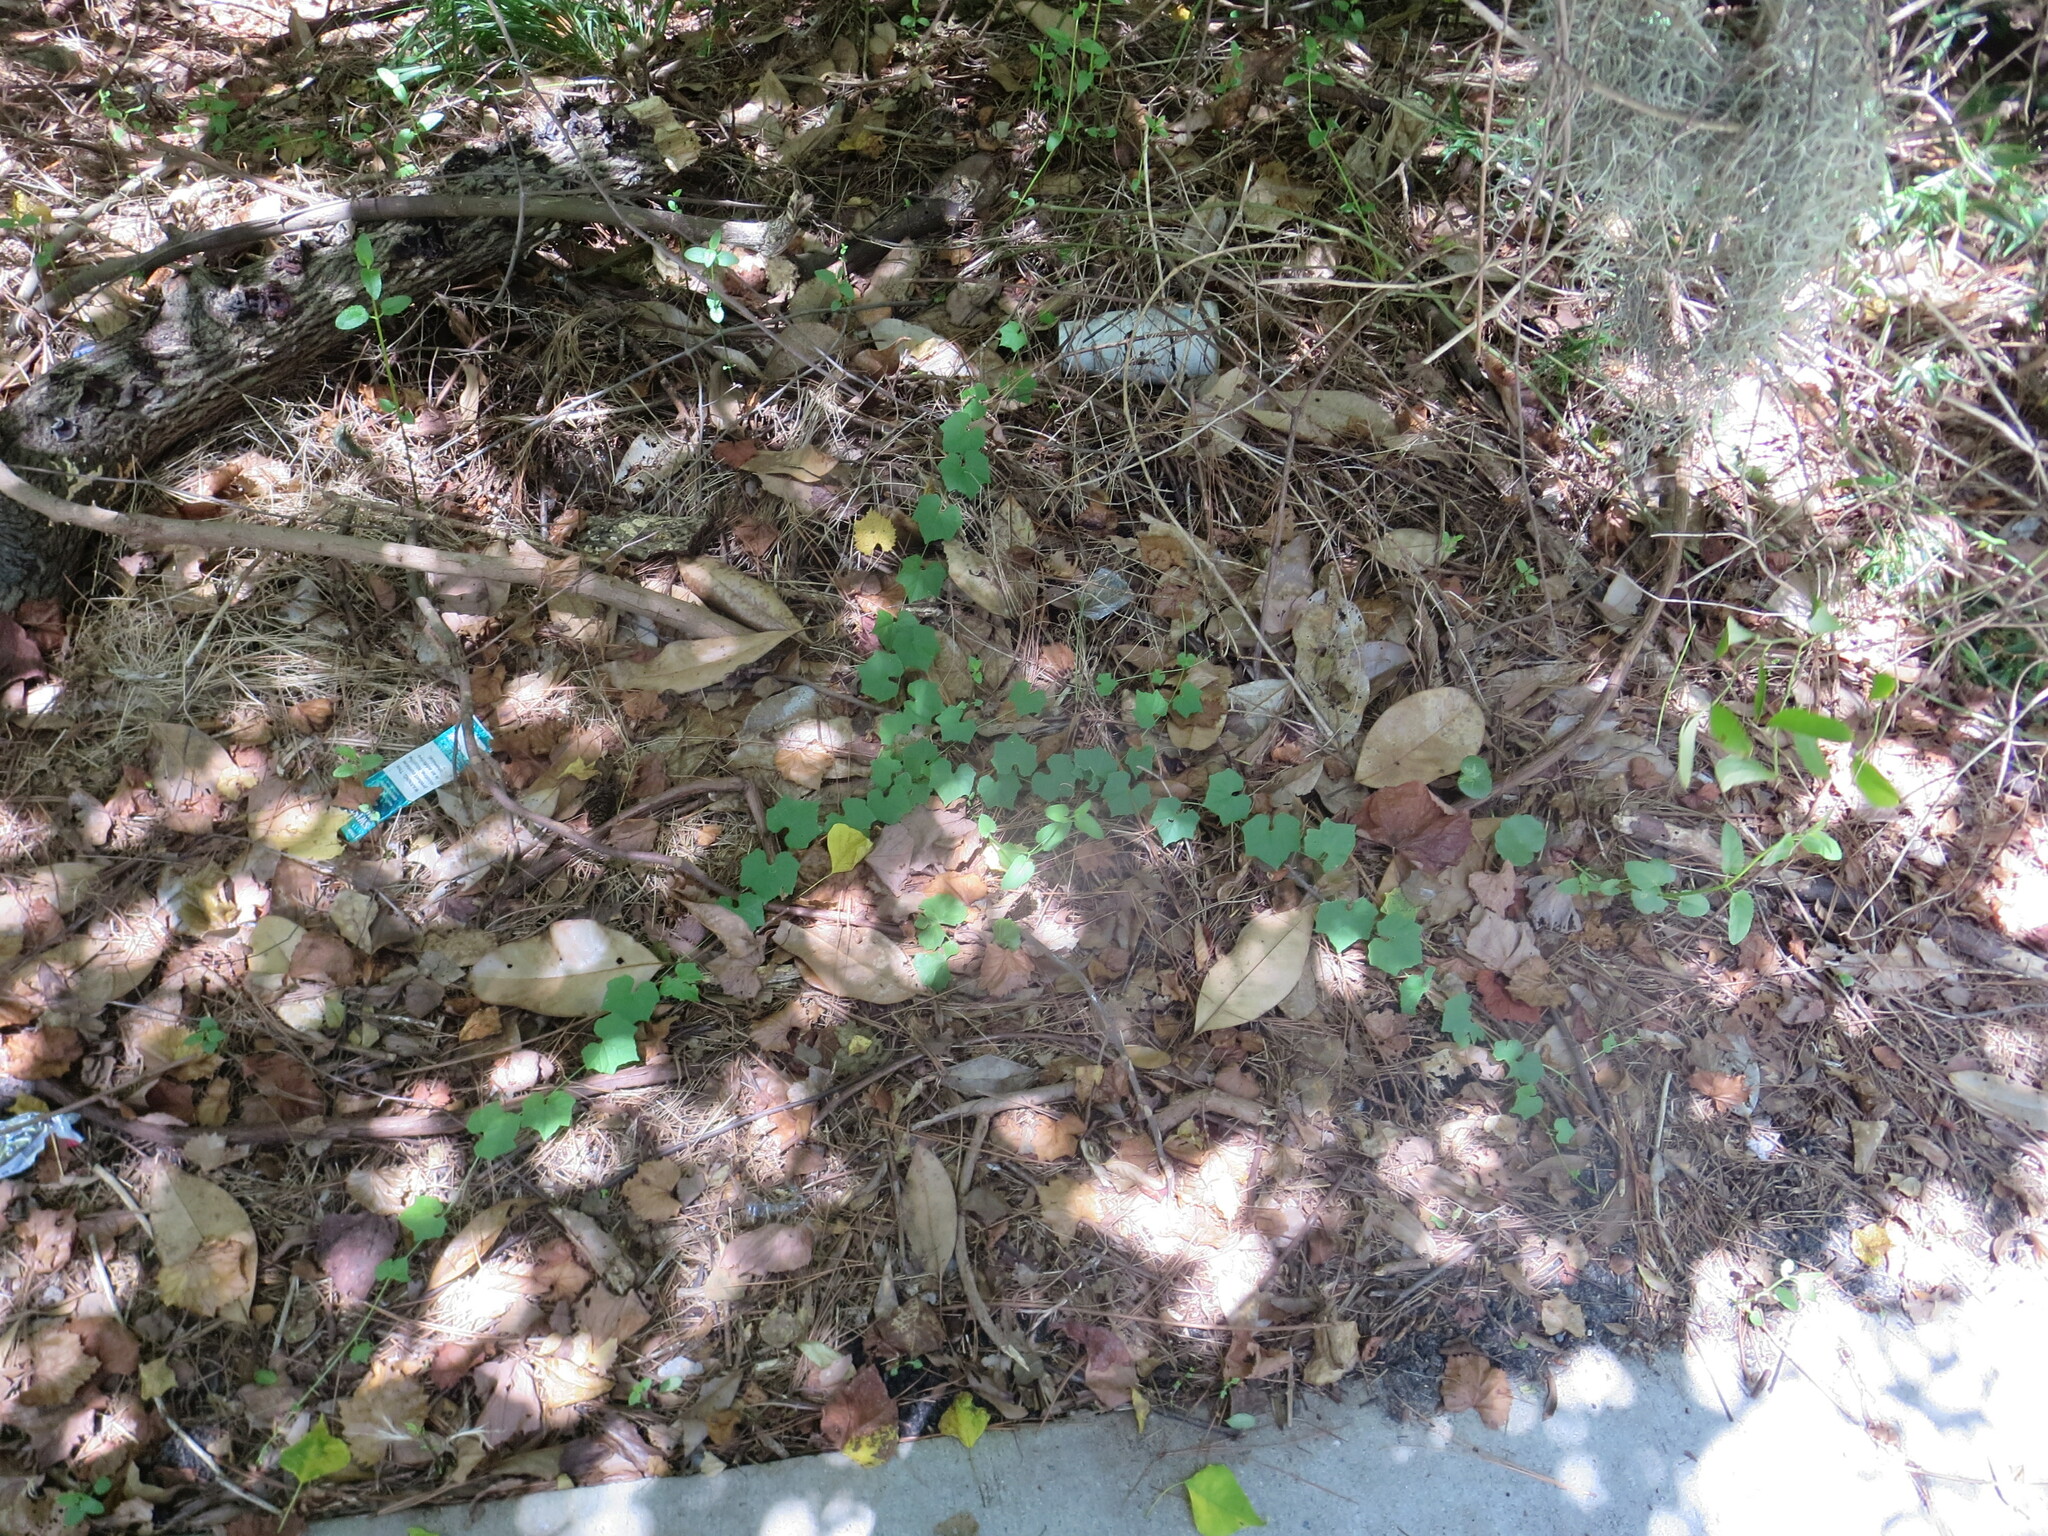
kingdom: Plantae
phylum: Tracheophyta
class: Magnoliopsida
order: Cucurbitales
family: Cucurbitaceae
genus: Melothria
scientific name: Melothria pendula
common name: Creeping-cucumber
